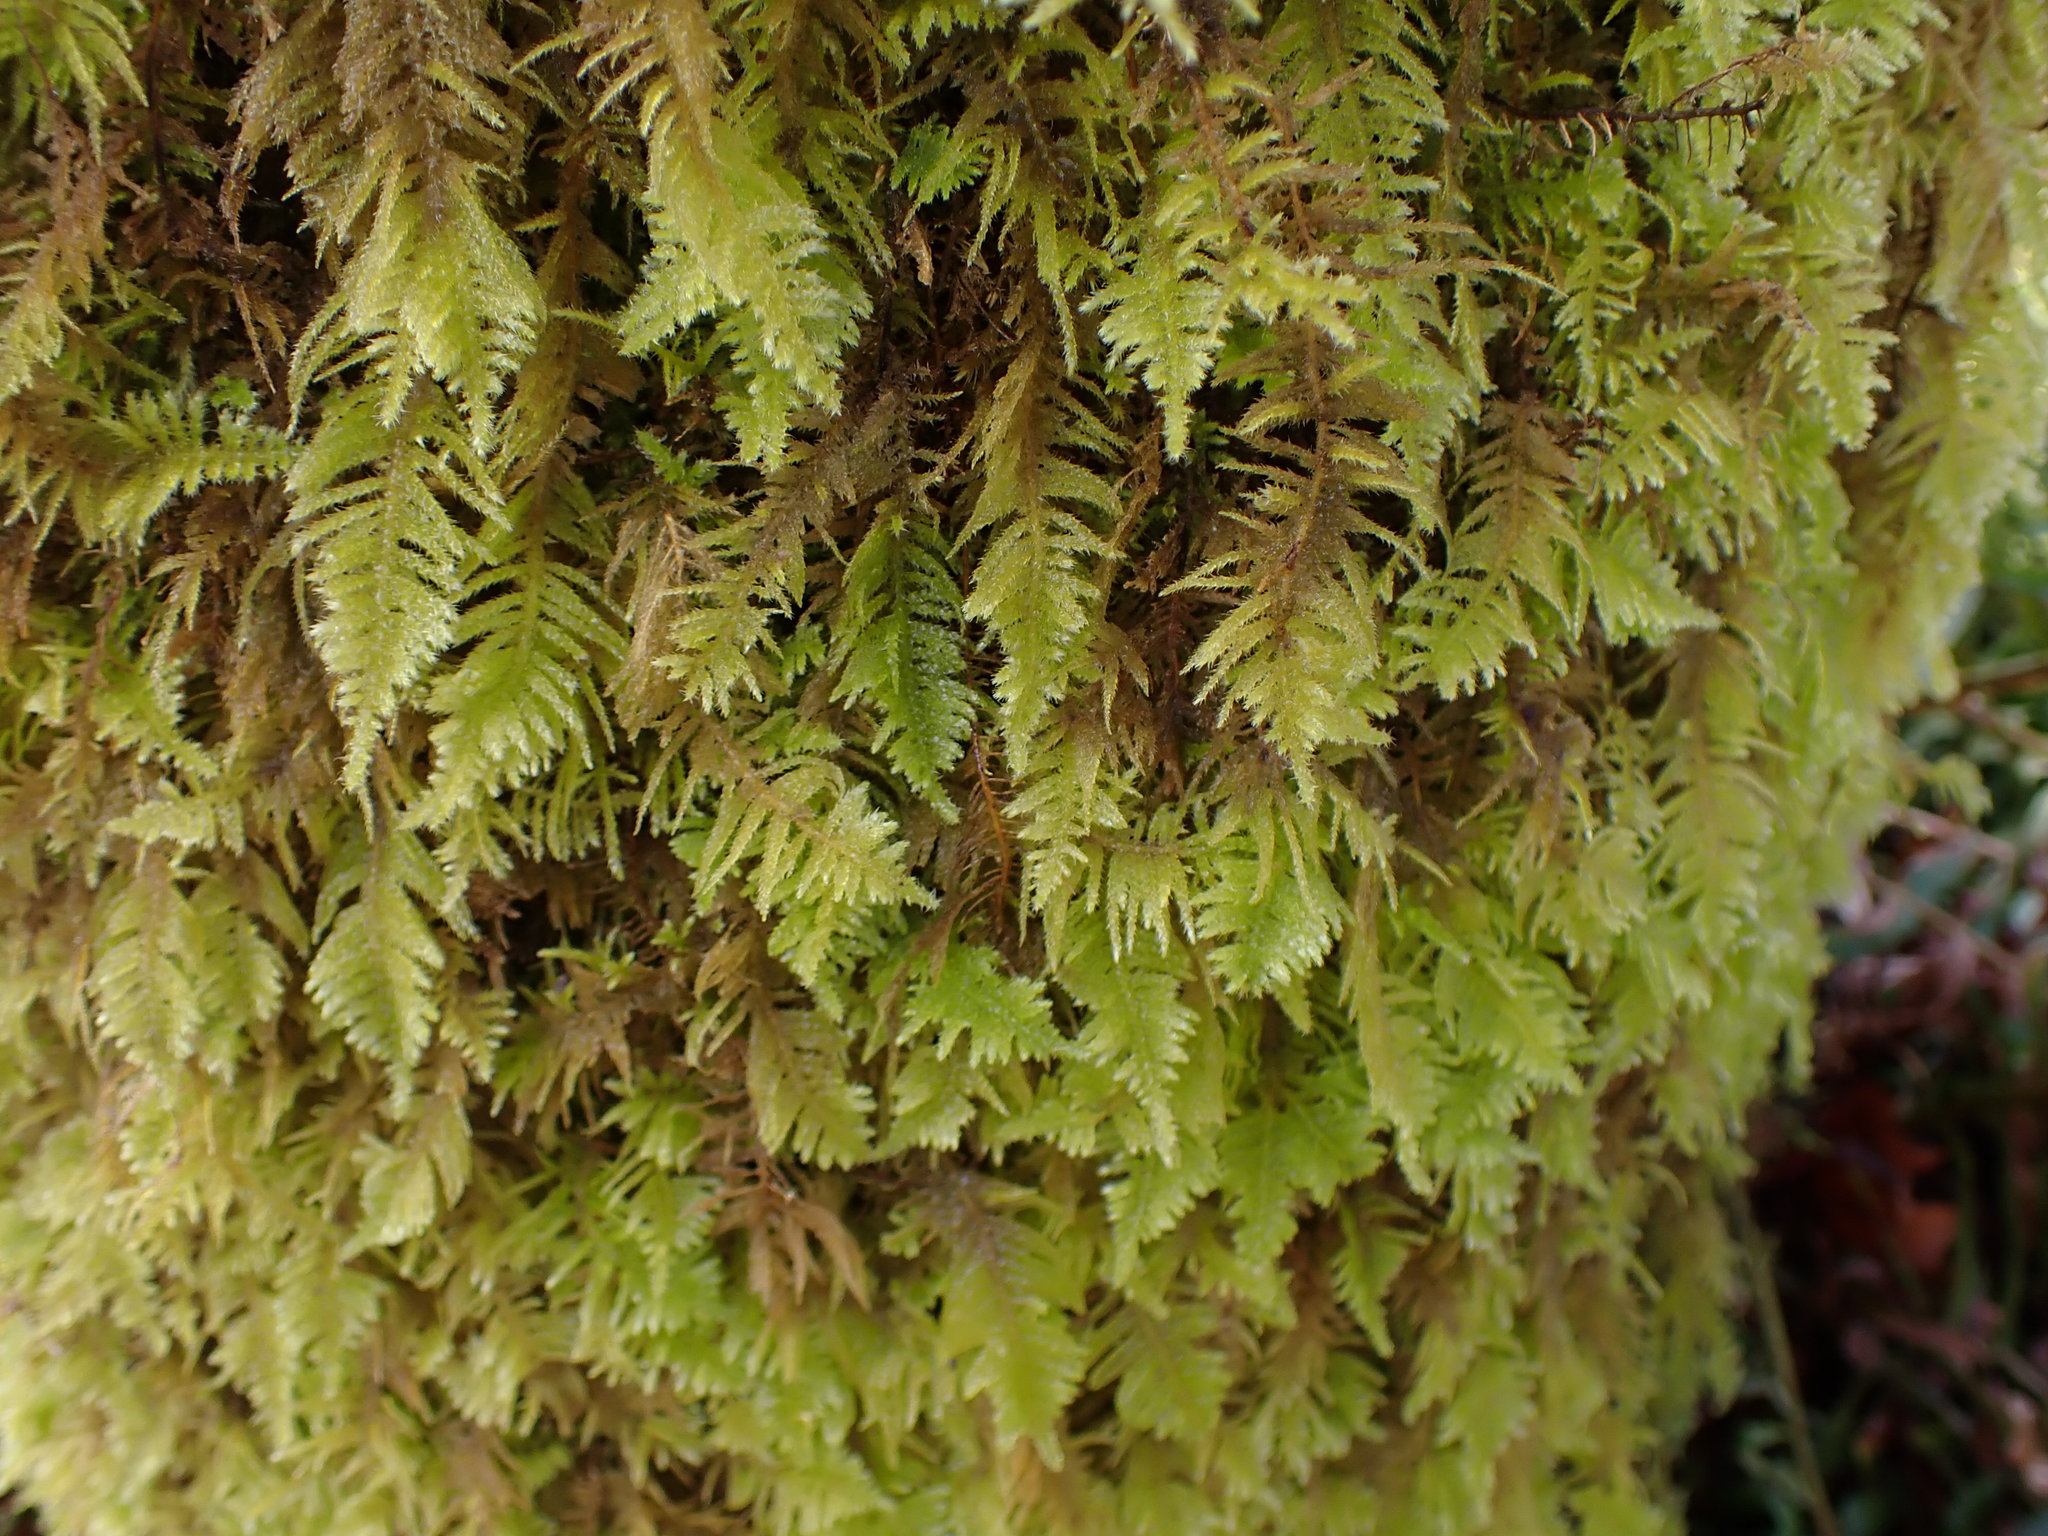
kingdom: Plantae
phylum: Bryophyta
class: Bryopsida
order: Hypnales
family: Brachytheciaceae
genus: Kindbergia
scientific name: Kindbergia oregana
